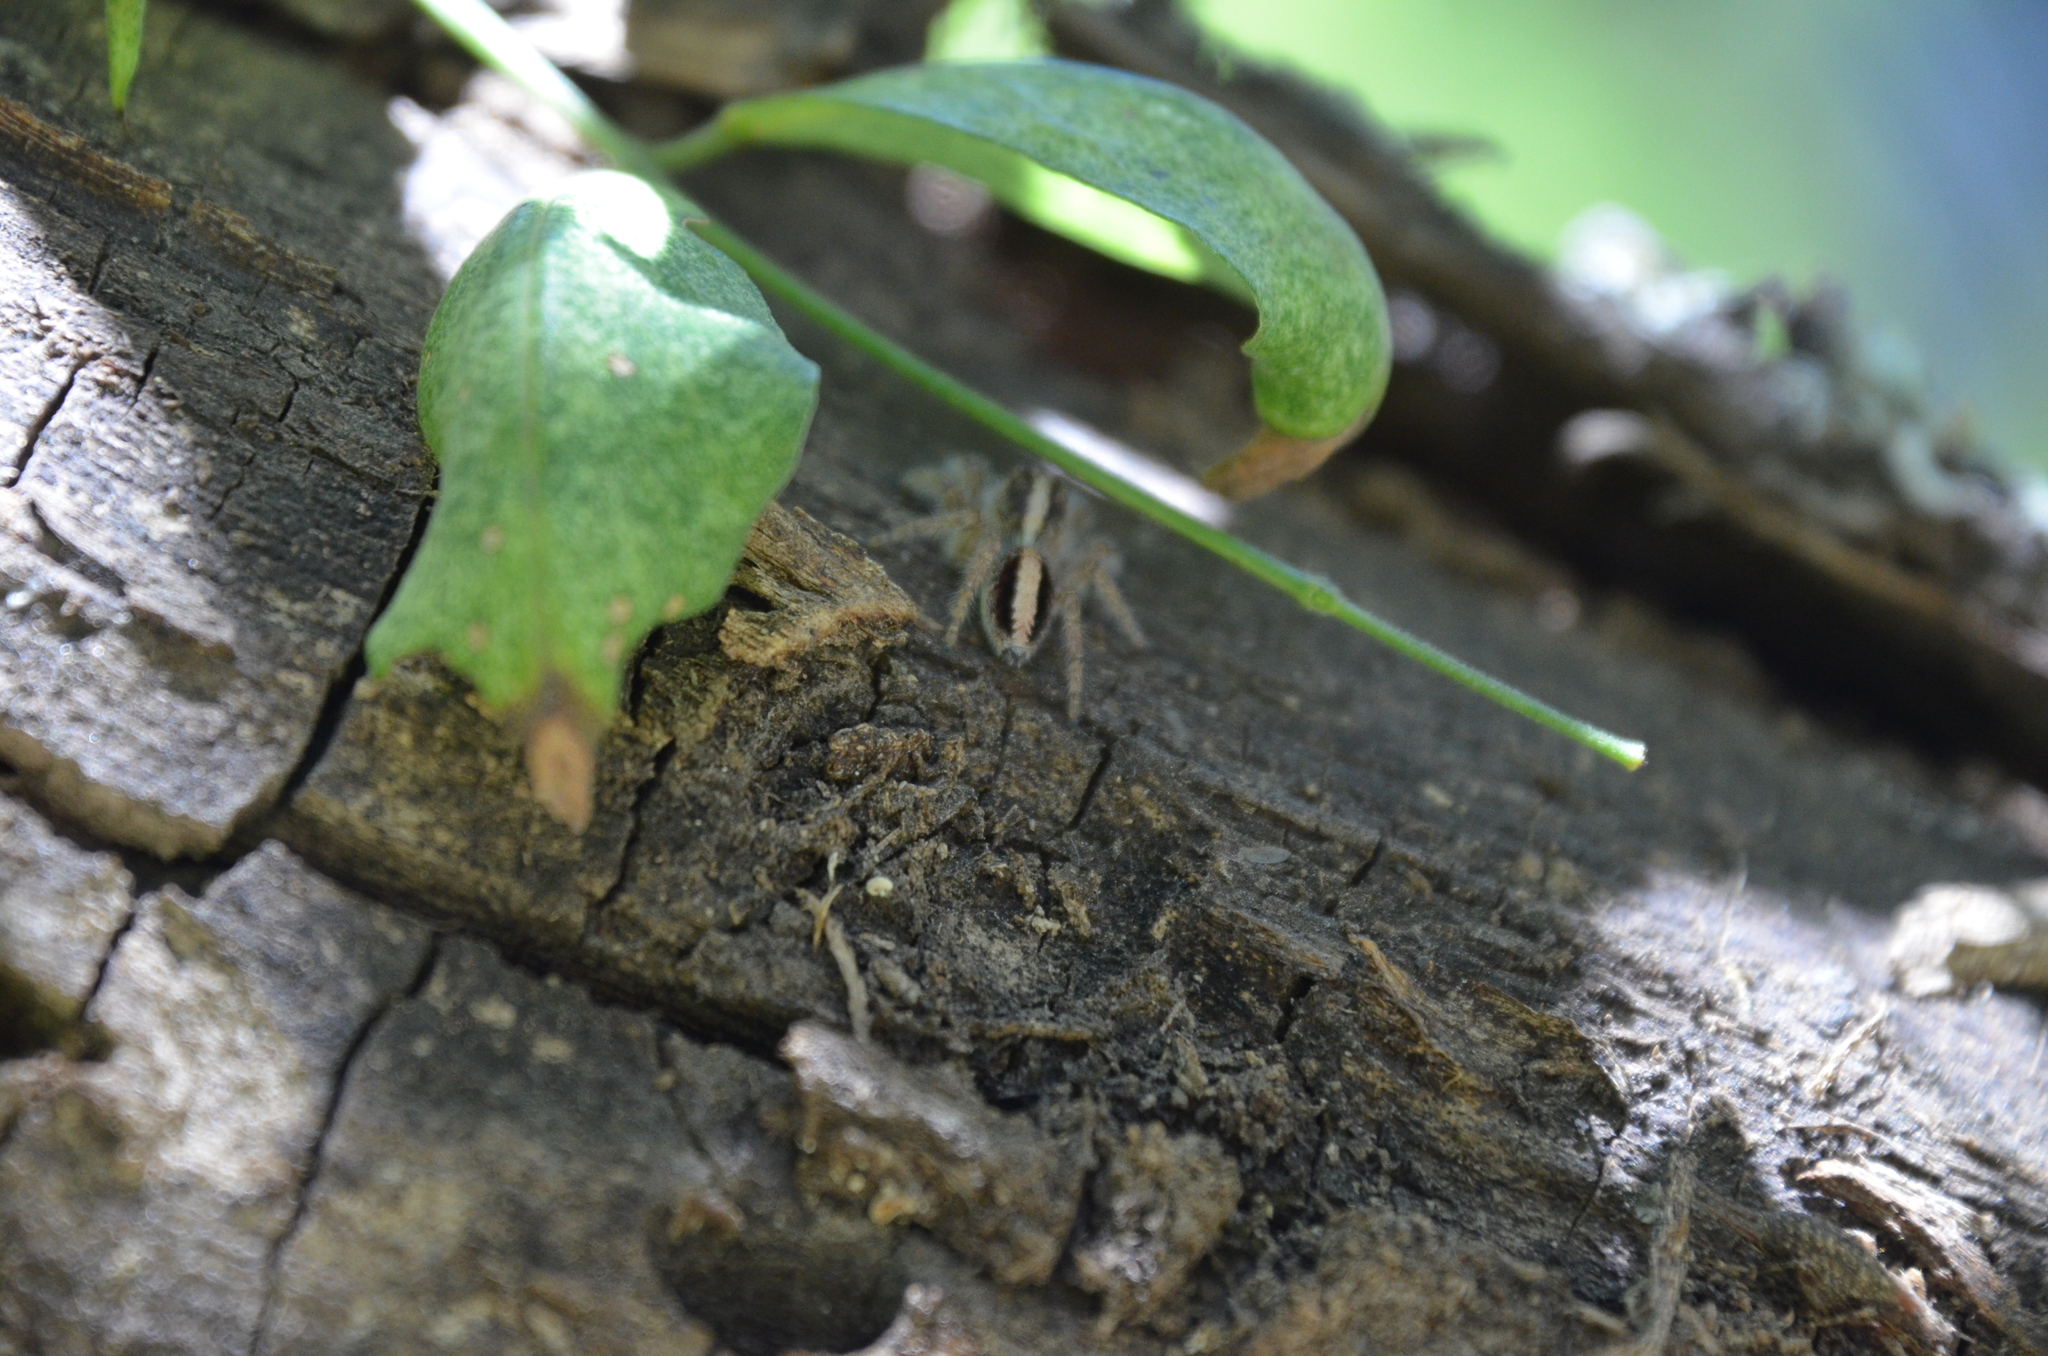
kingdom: Animalia
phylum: Arthropoda
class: Arachnida
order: Araneae
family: Salticidae
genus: Megafreya
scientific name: Megafreya sutrix
